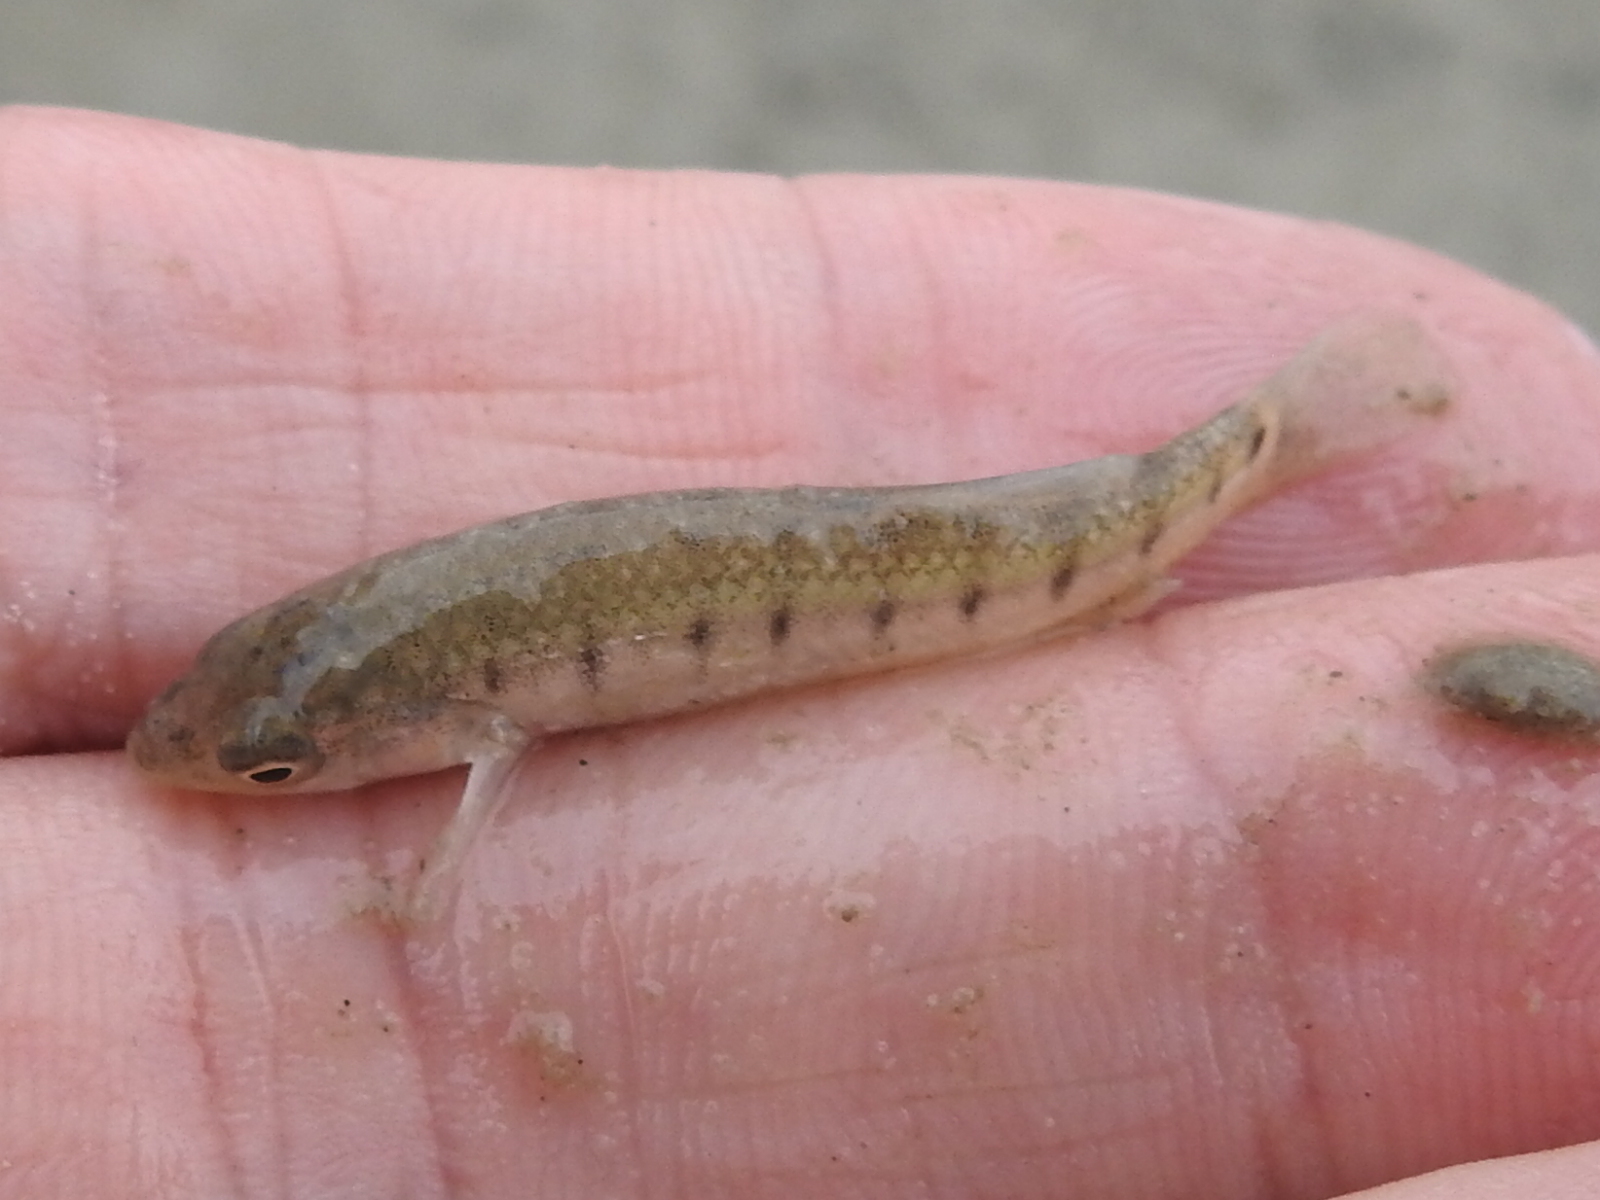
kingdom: Animalia
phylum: Chordata
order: Cyprinodontiformes
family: Fundulidae
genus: Fundulus
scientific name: Fundulus similis
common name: Longnose killifish
